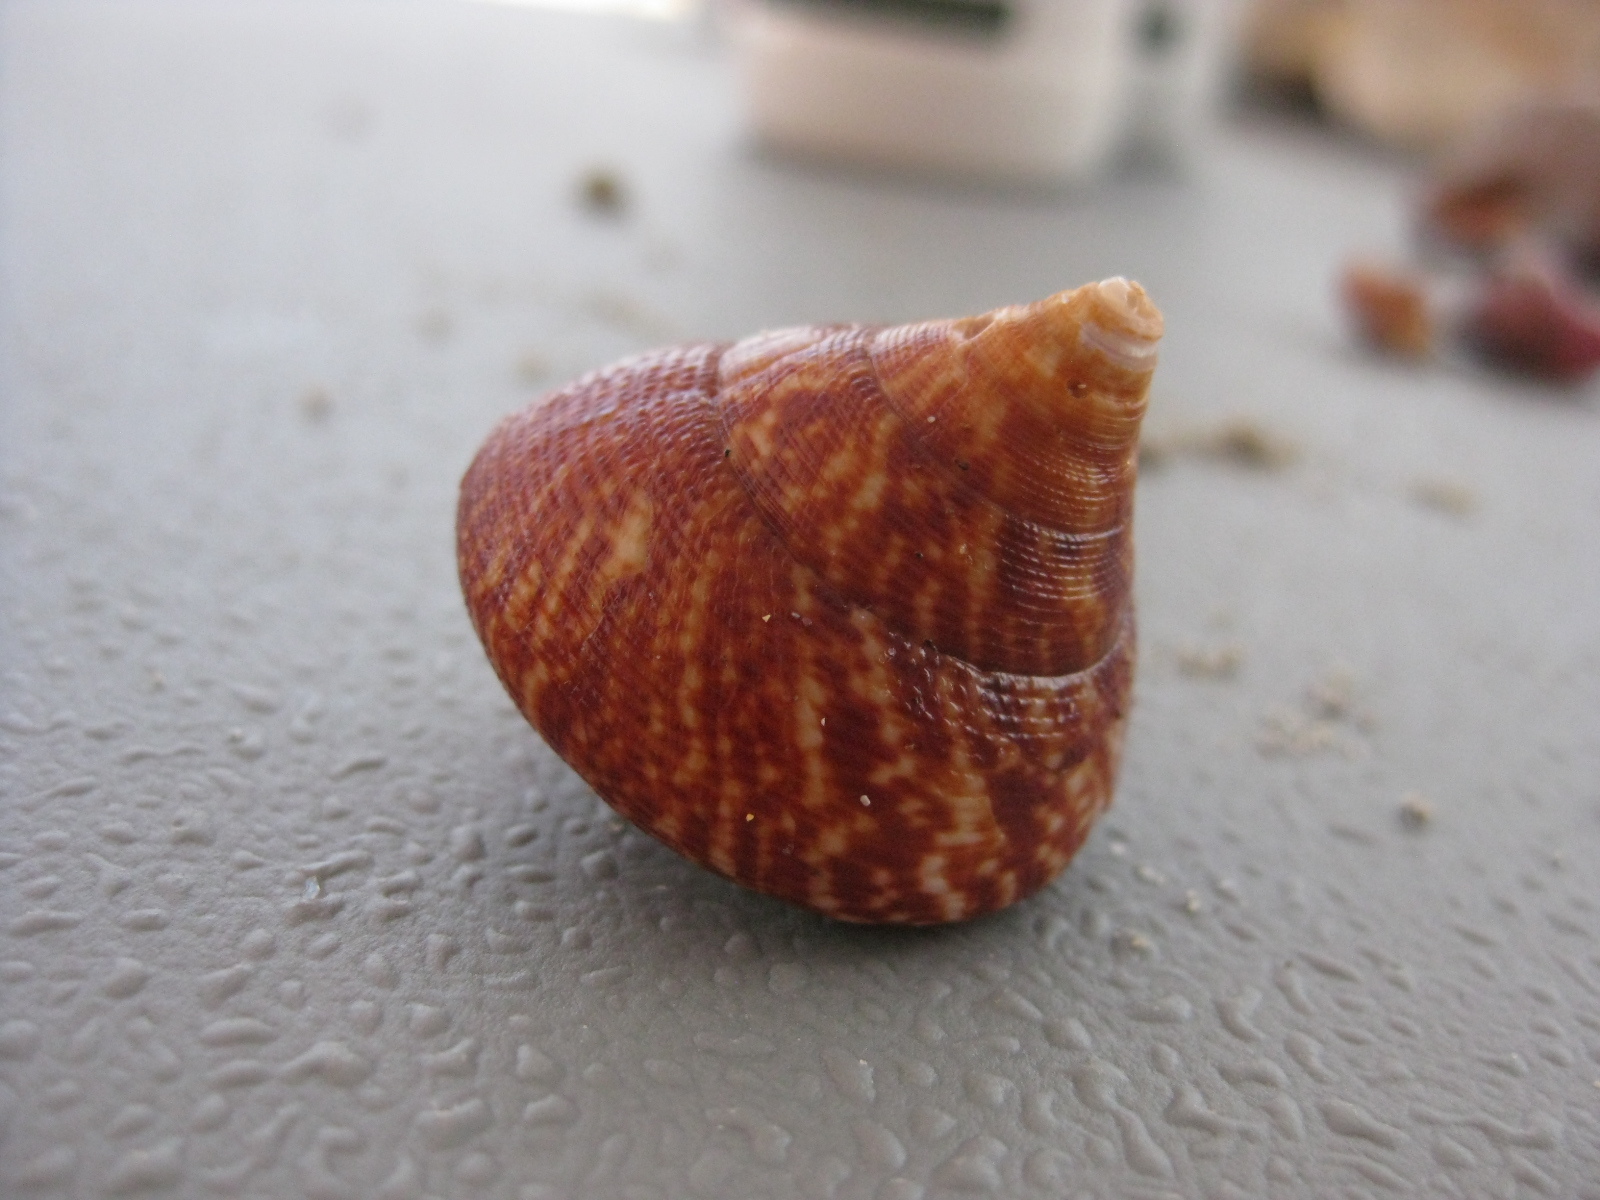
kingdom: Animalia
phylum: Mollusca
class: Gastropoda
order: Trochida
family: Calliostomatidae
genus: Maurea
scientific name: Maurea tigris
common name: Tiger maurea
